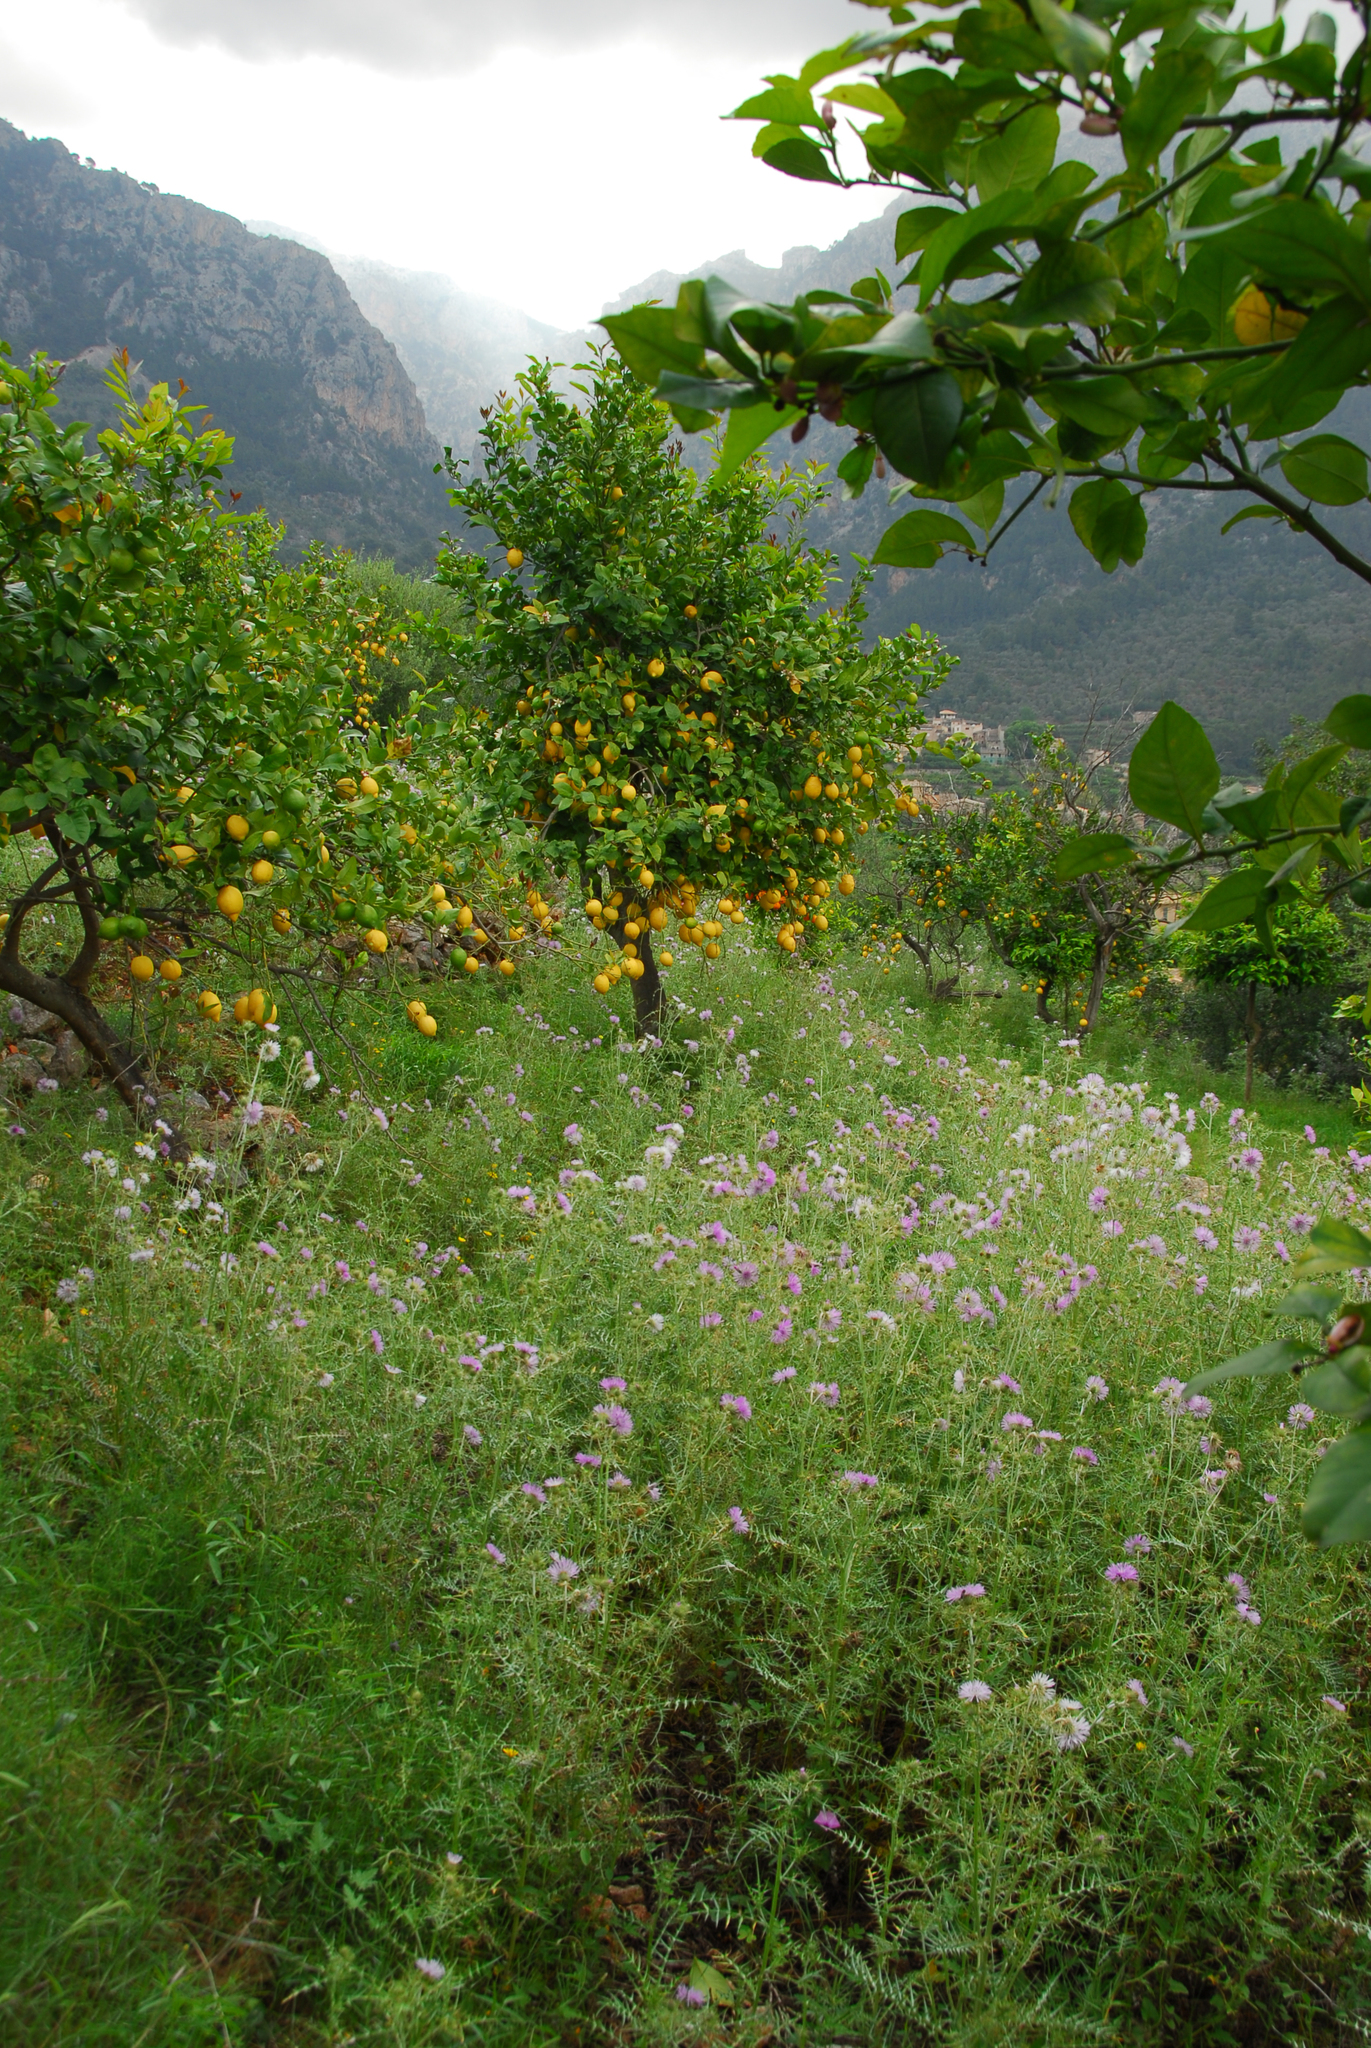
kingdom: Plantae
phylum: Tracheophyta
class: Magnoliopsida
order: Asterales
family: Asteraceae
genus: Galactites
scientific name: Galactites tomentosa
